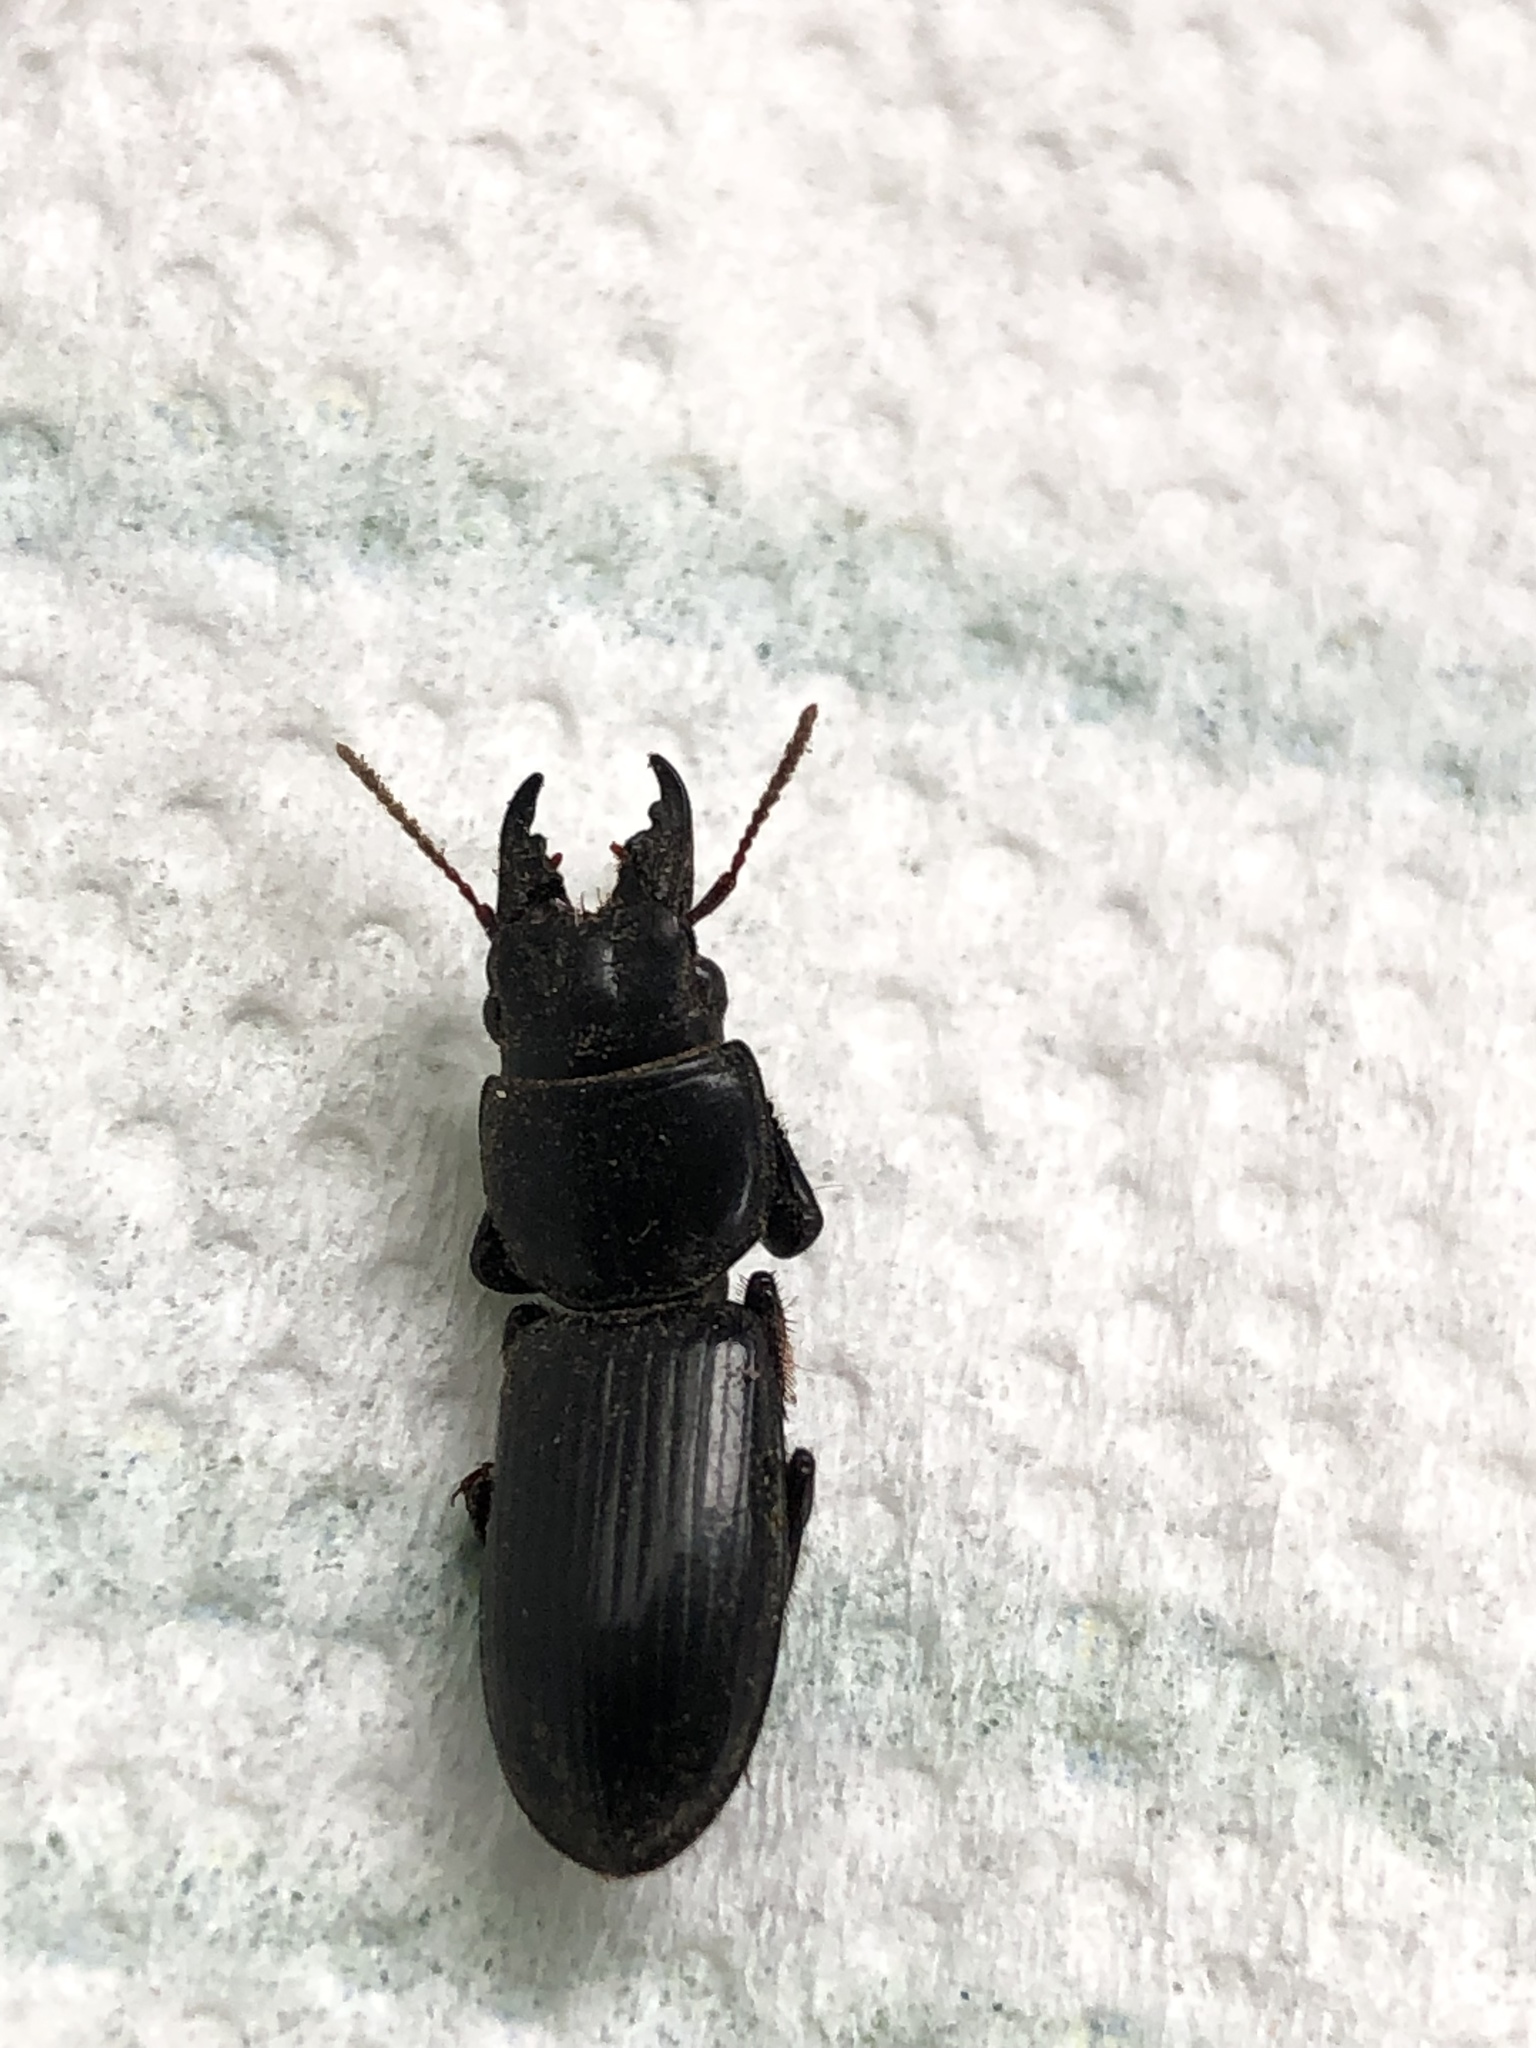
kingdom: Animalia
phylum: Arthropoda
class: Insecta
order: Coleoptera
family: Carabidae
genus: Scarites
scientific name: Scarites subterraneus
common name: Big-headed ground beetle
